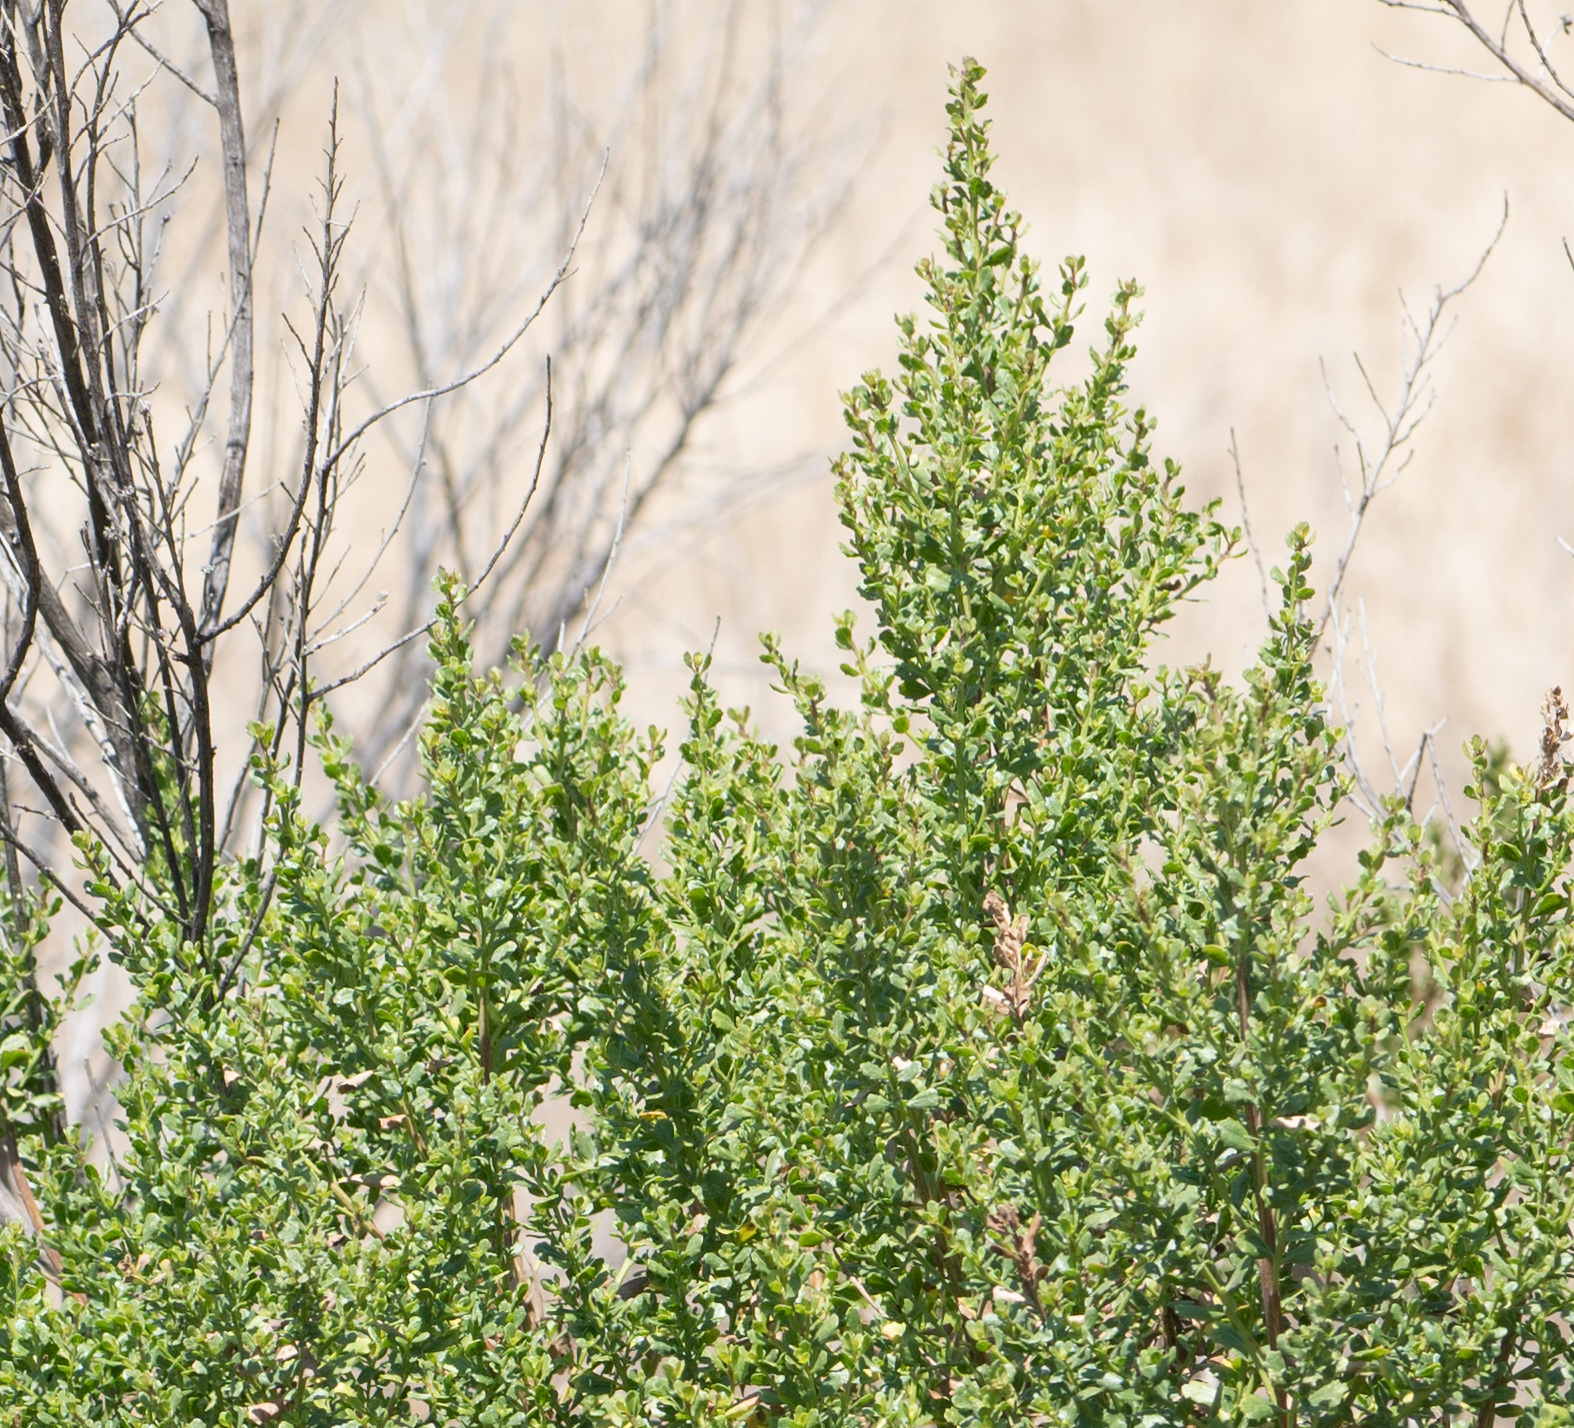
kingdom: Plantae
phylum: Tracheophyta
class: Magnoliopsida
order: Asterales
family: Asteraceae
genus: Baccharis
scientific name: Baccharis pilularis
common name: Coyotebrush
